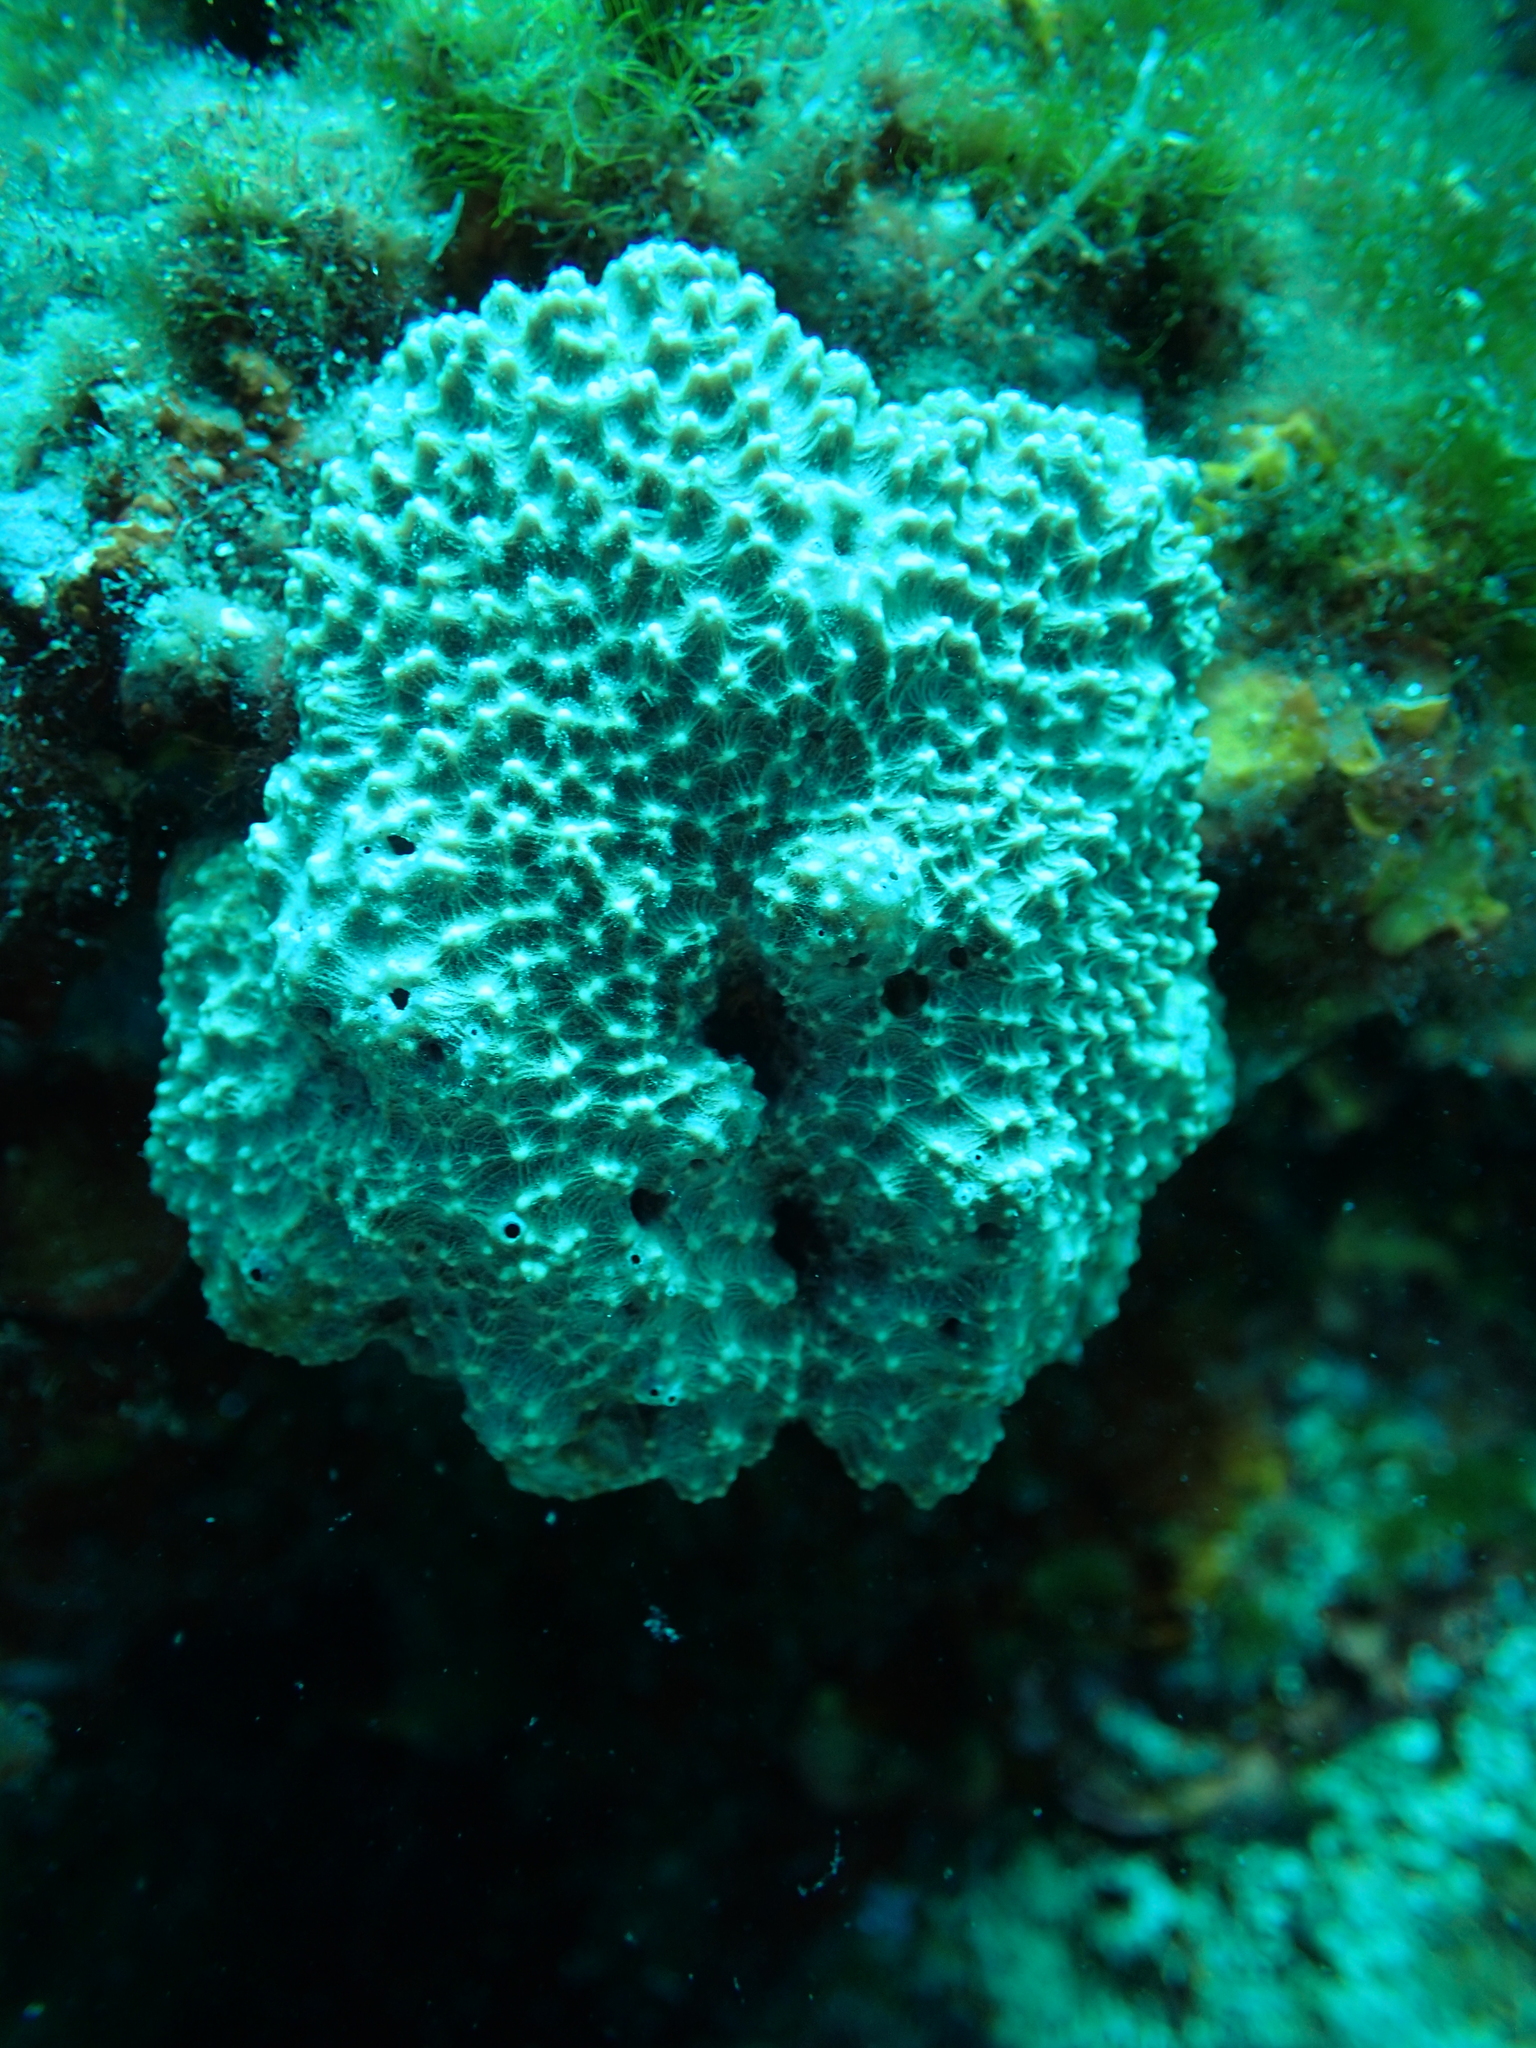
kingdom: Animalia
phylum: Porifera
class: Demospongiae
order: Dictyoceratida
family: Irciniidae
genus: Sarcotragus
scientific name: Sarcotragus fasciculatus
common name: Stinker sponge
